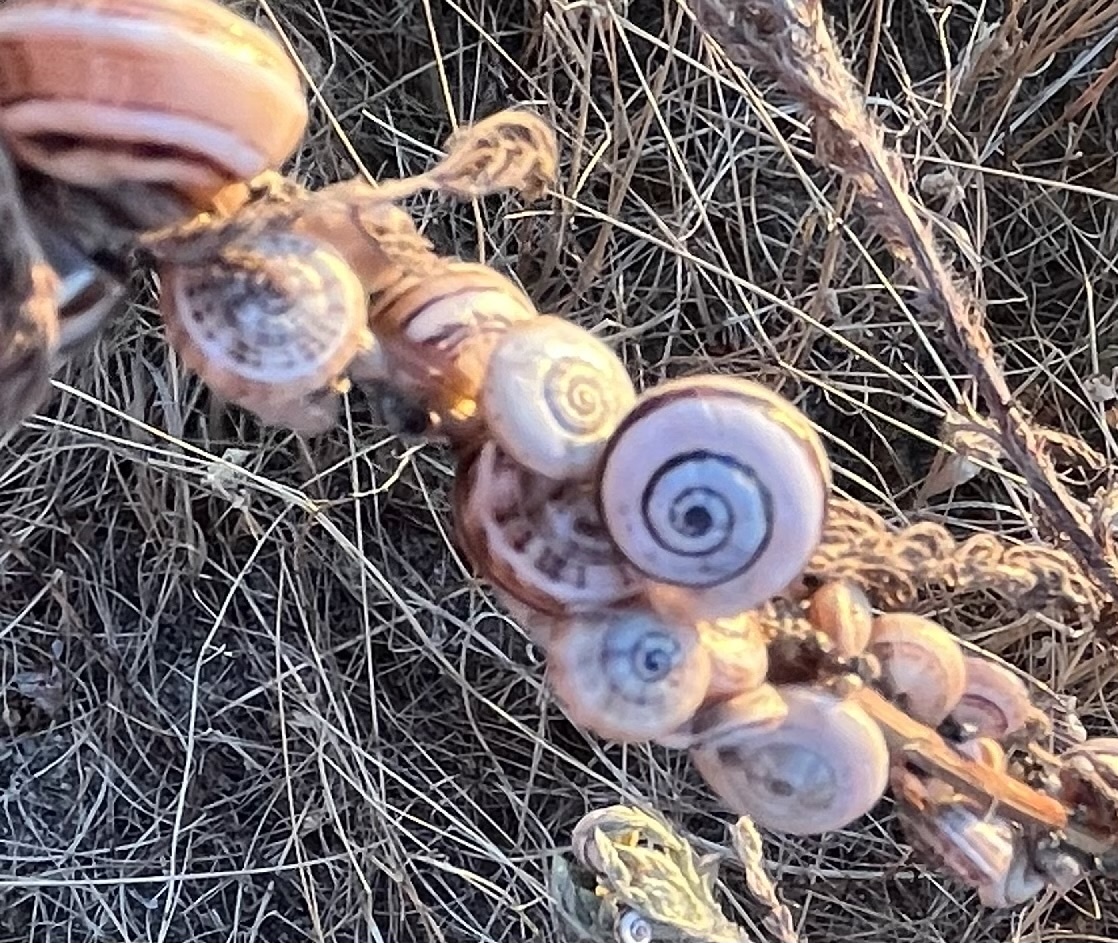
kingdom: Animalia
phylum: Mollusca
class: Gastropoda
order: Stylommatophora
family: Helicidae
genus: Theba
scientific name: Theba pisana
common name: White snail
